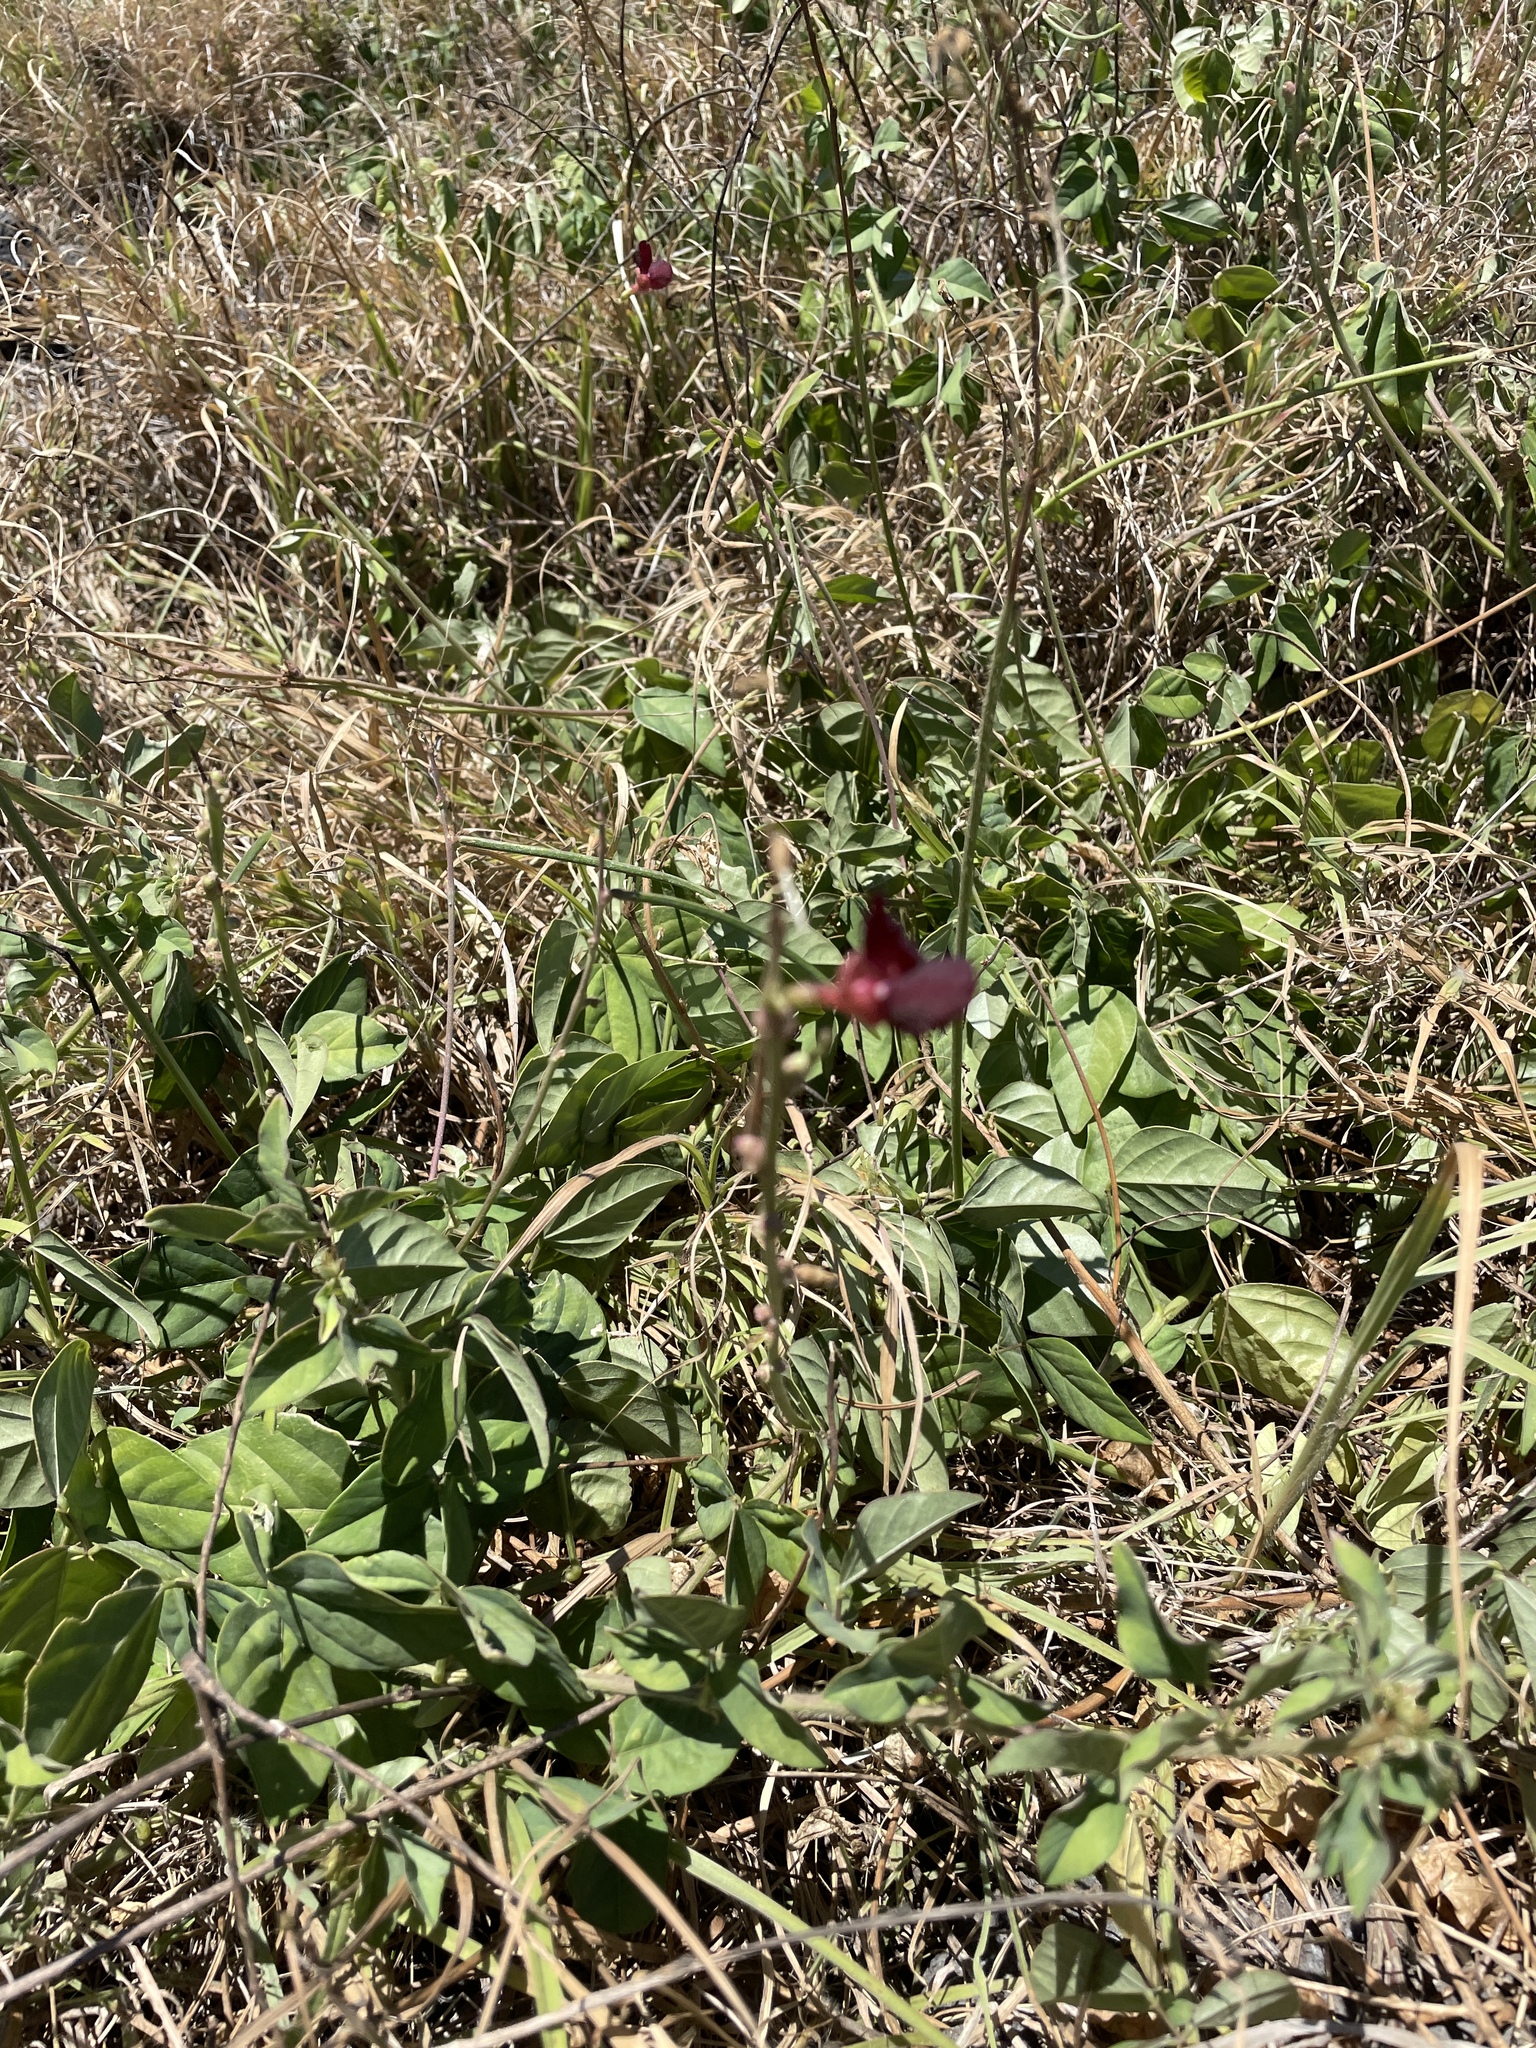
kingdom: Plantae
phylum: Tracheophyta
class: Magnoliopsida
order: Fabales
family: Fabaceae
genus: Macroptilium
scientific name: Macroptilium atropurpureum
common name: Purple bushbean
